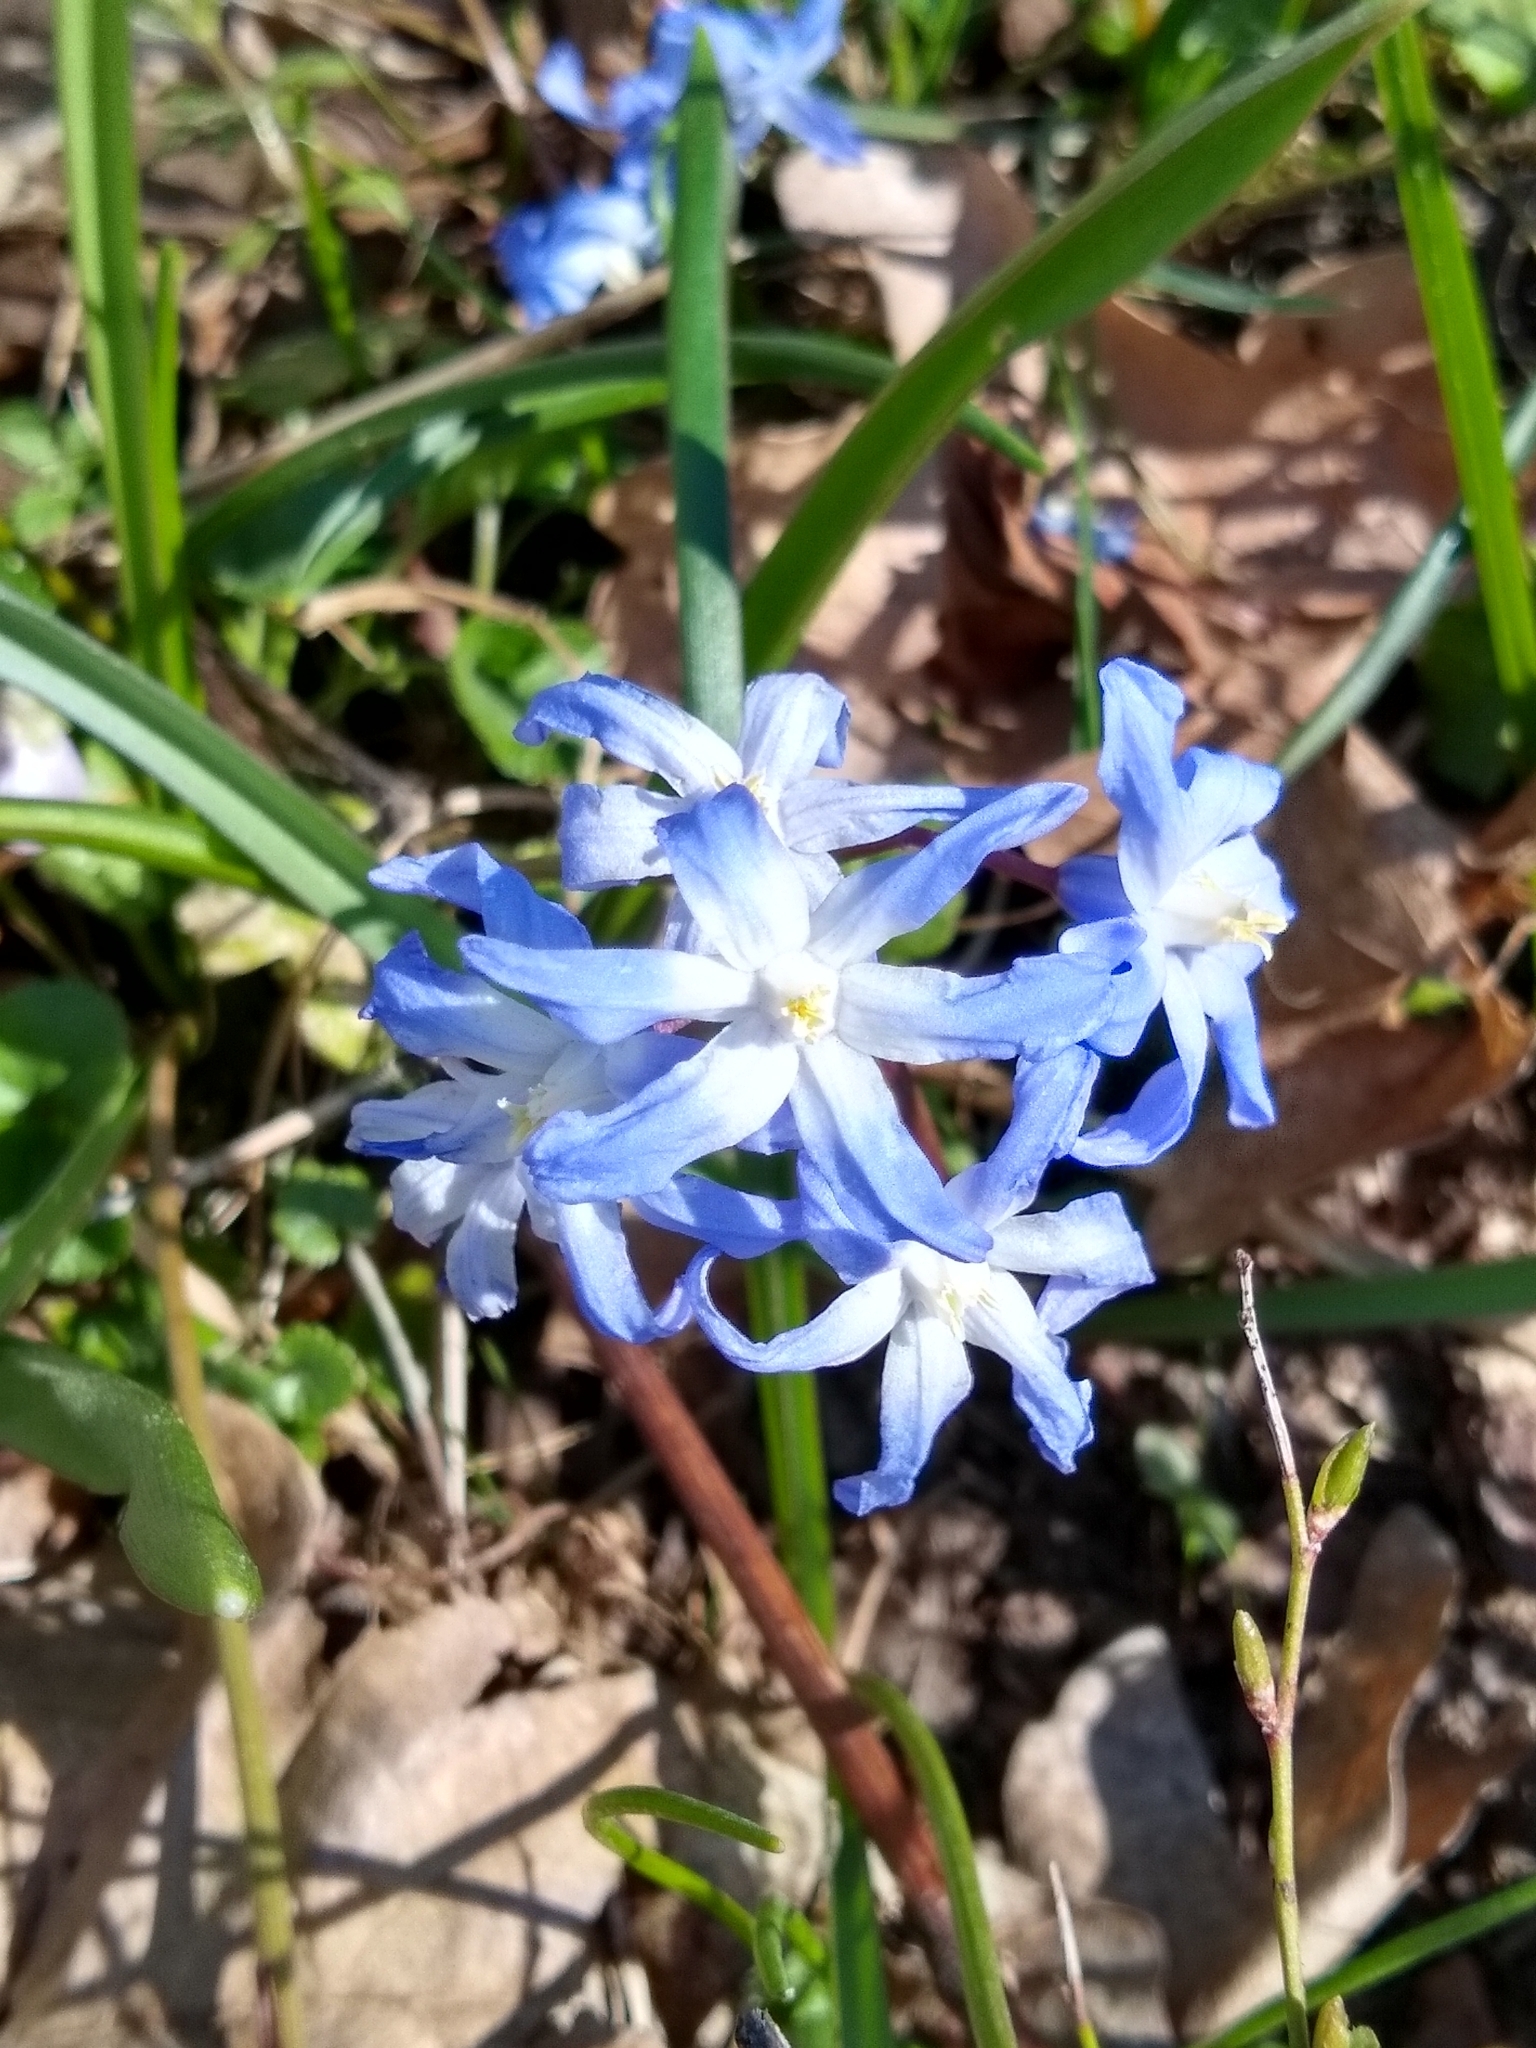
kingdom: Plantae
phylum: Tracheophyta
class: Liliopsida
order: Asparagales
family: Asparagaceae
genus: Scilla
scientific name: Scilla forbesii
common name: Glory-of-the-snow
